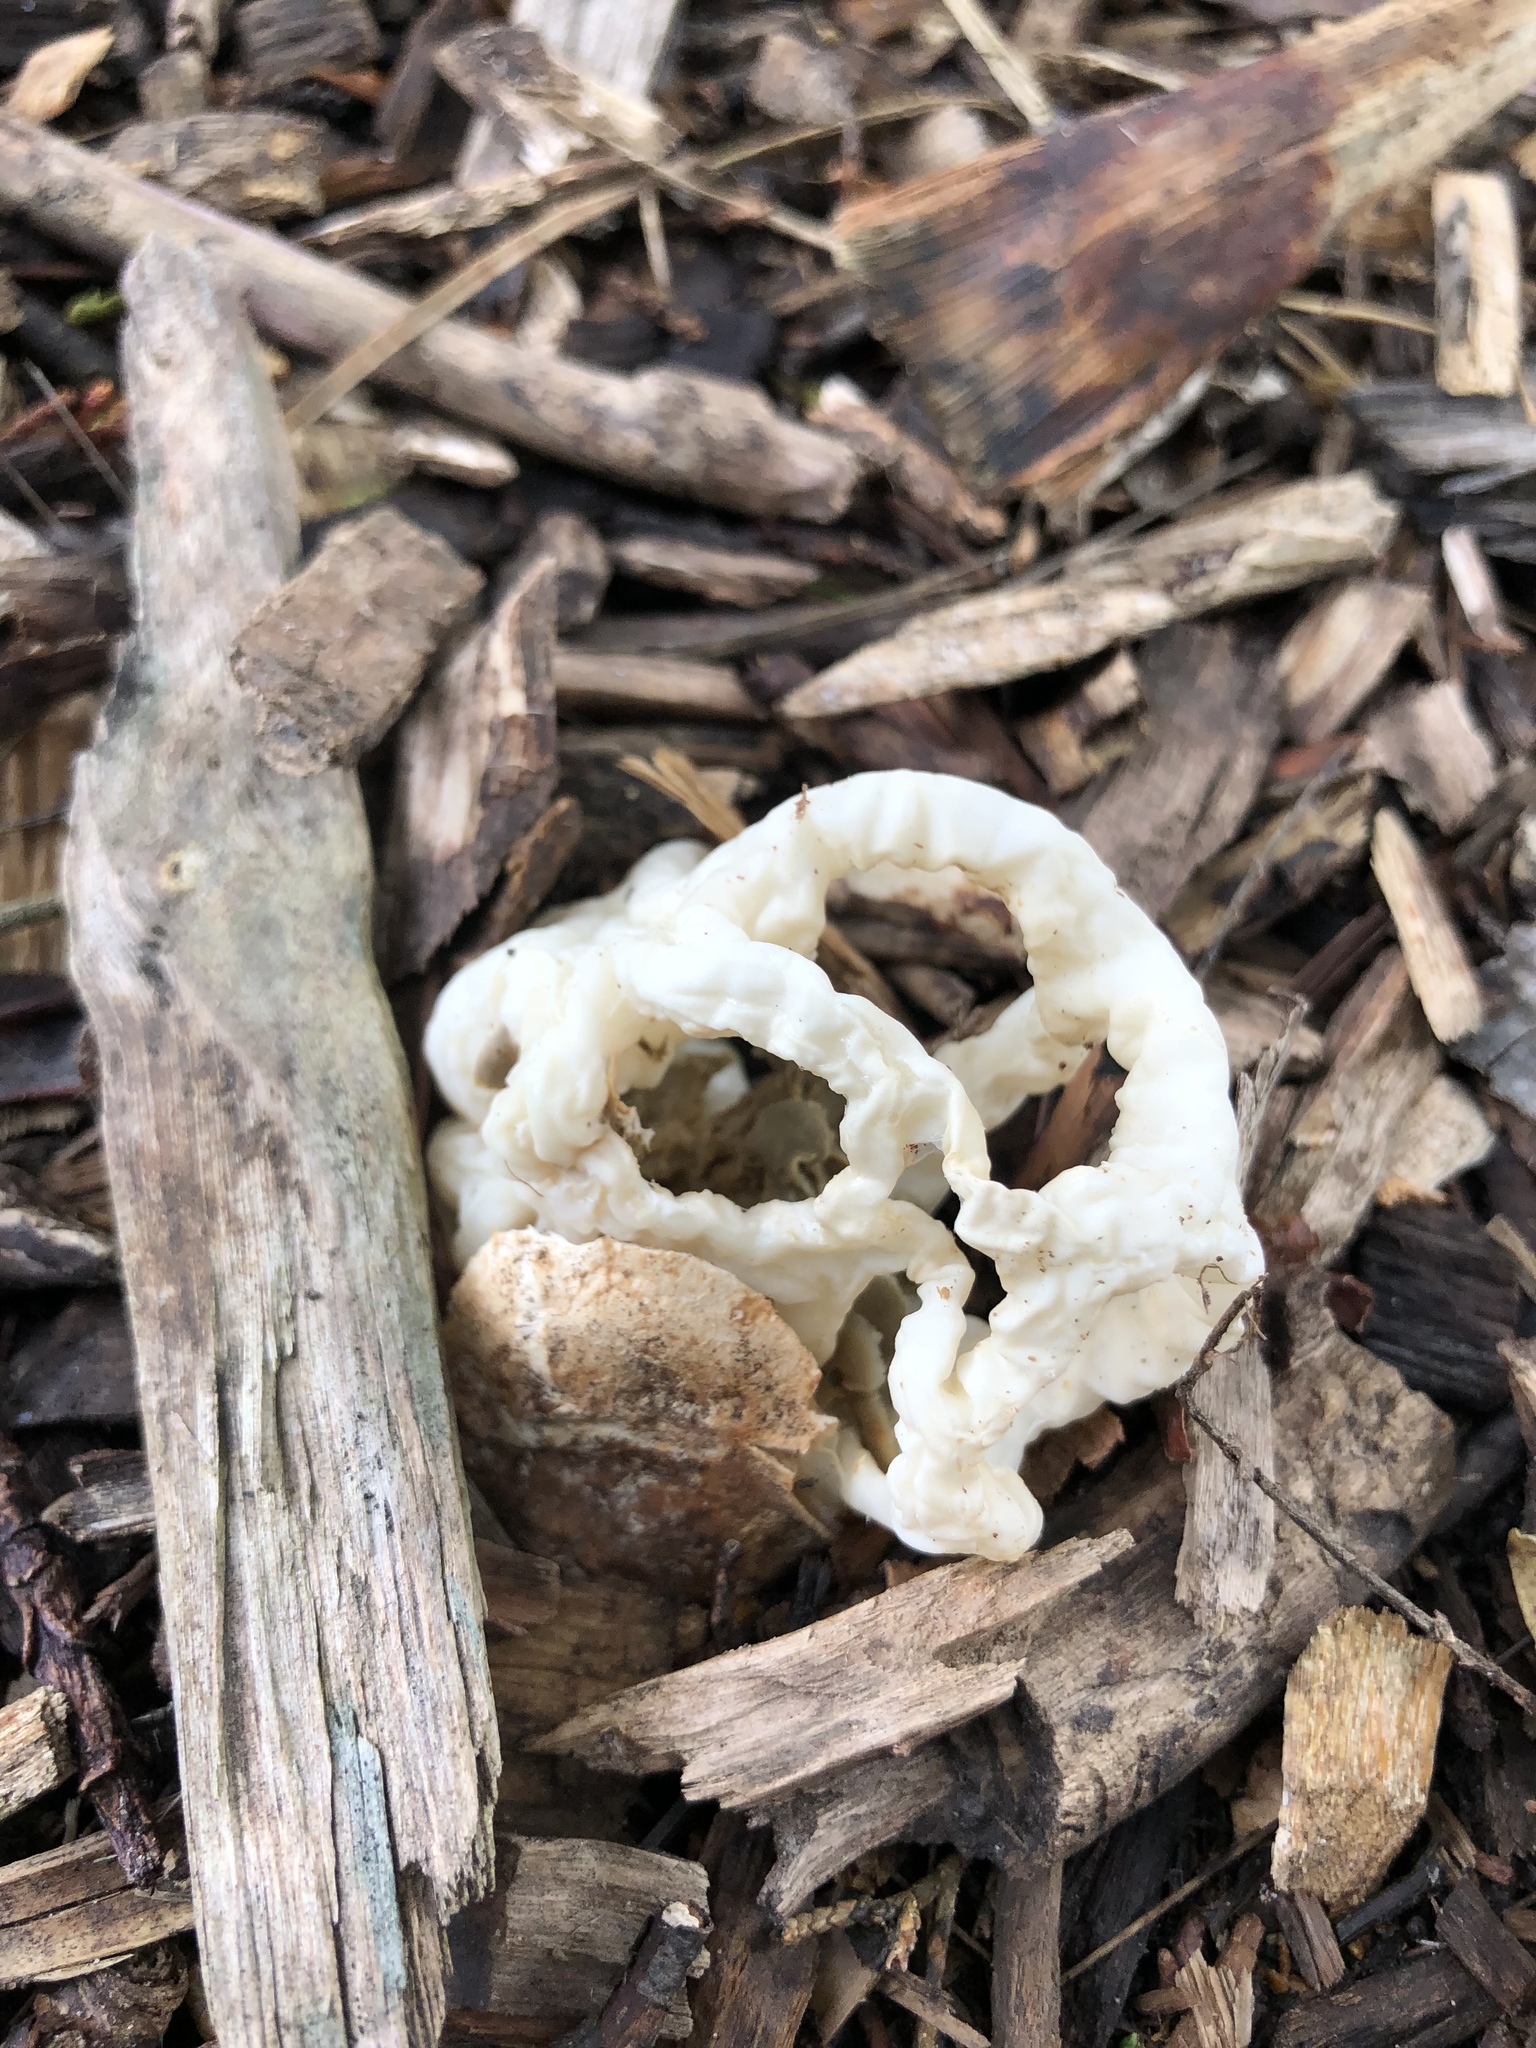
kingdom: Fungi
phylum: Basidiomycota
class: Agaricomycetes
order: Phallales
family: Phallaceae
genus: Ileodictyon
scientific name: Ileodictyon cibarium
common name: Basket fungus
